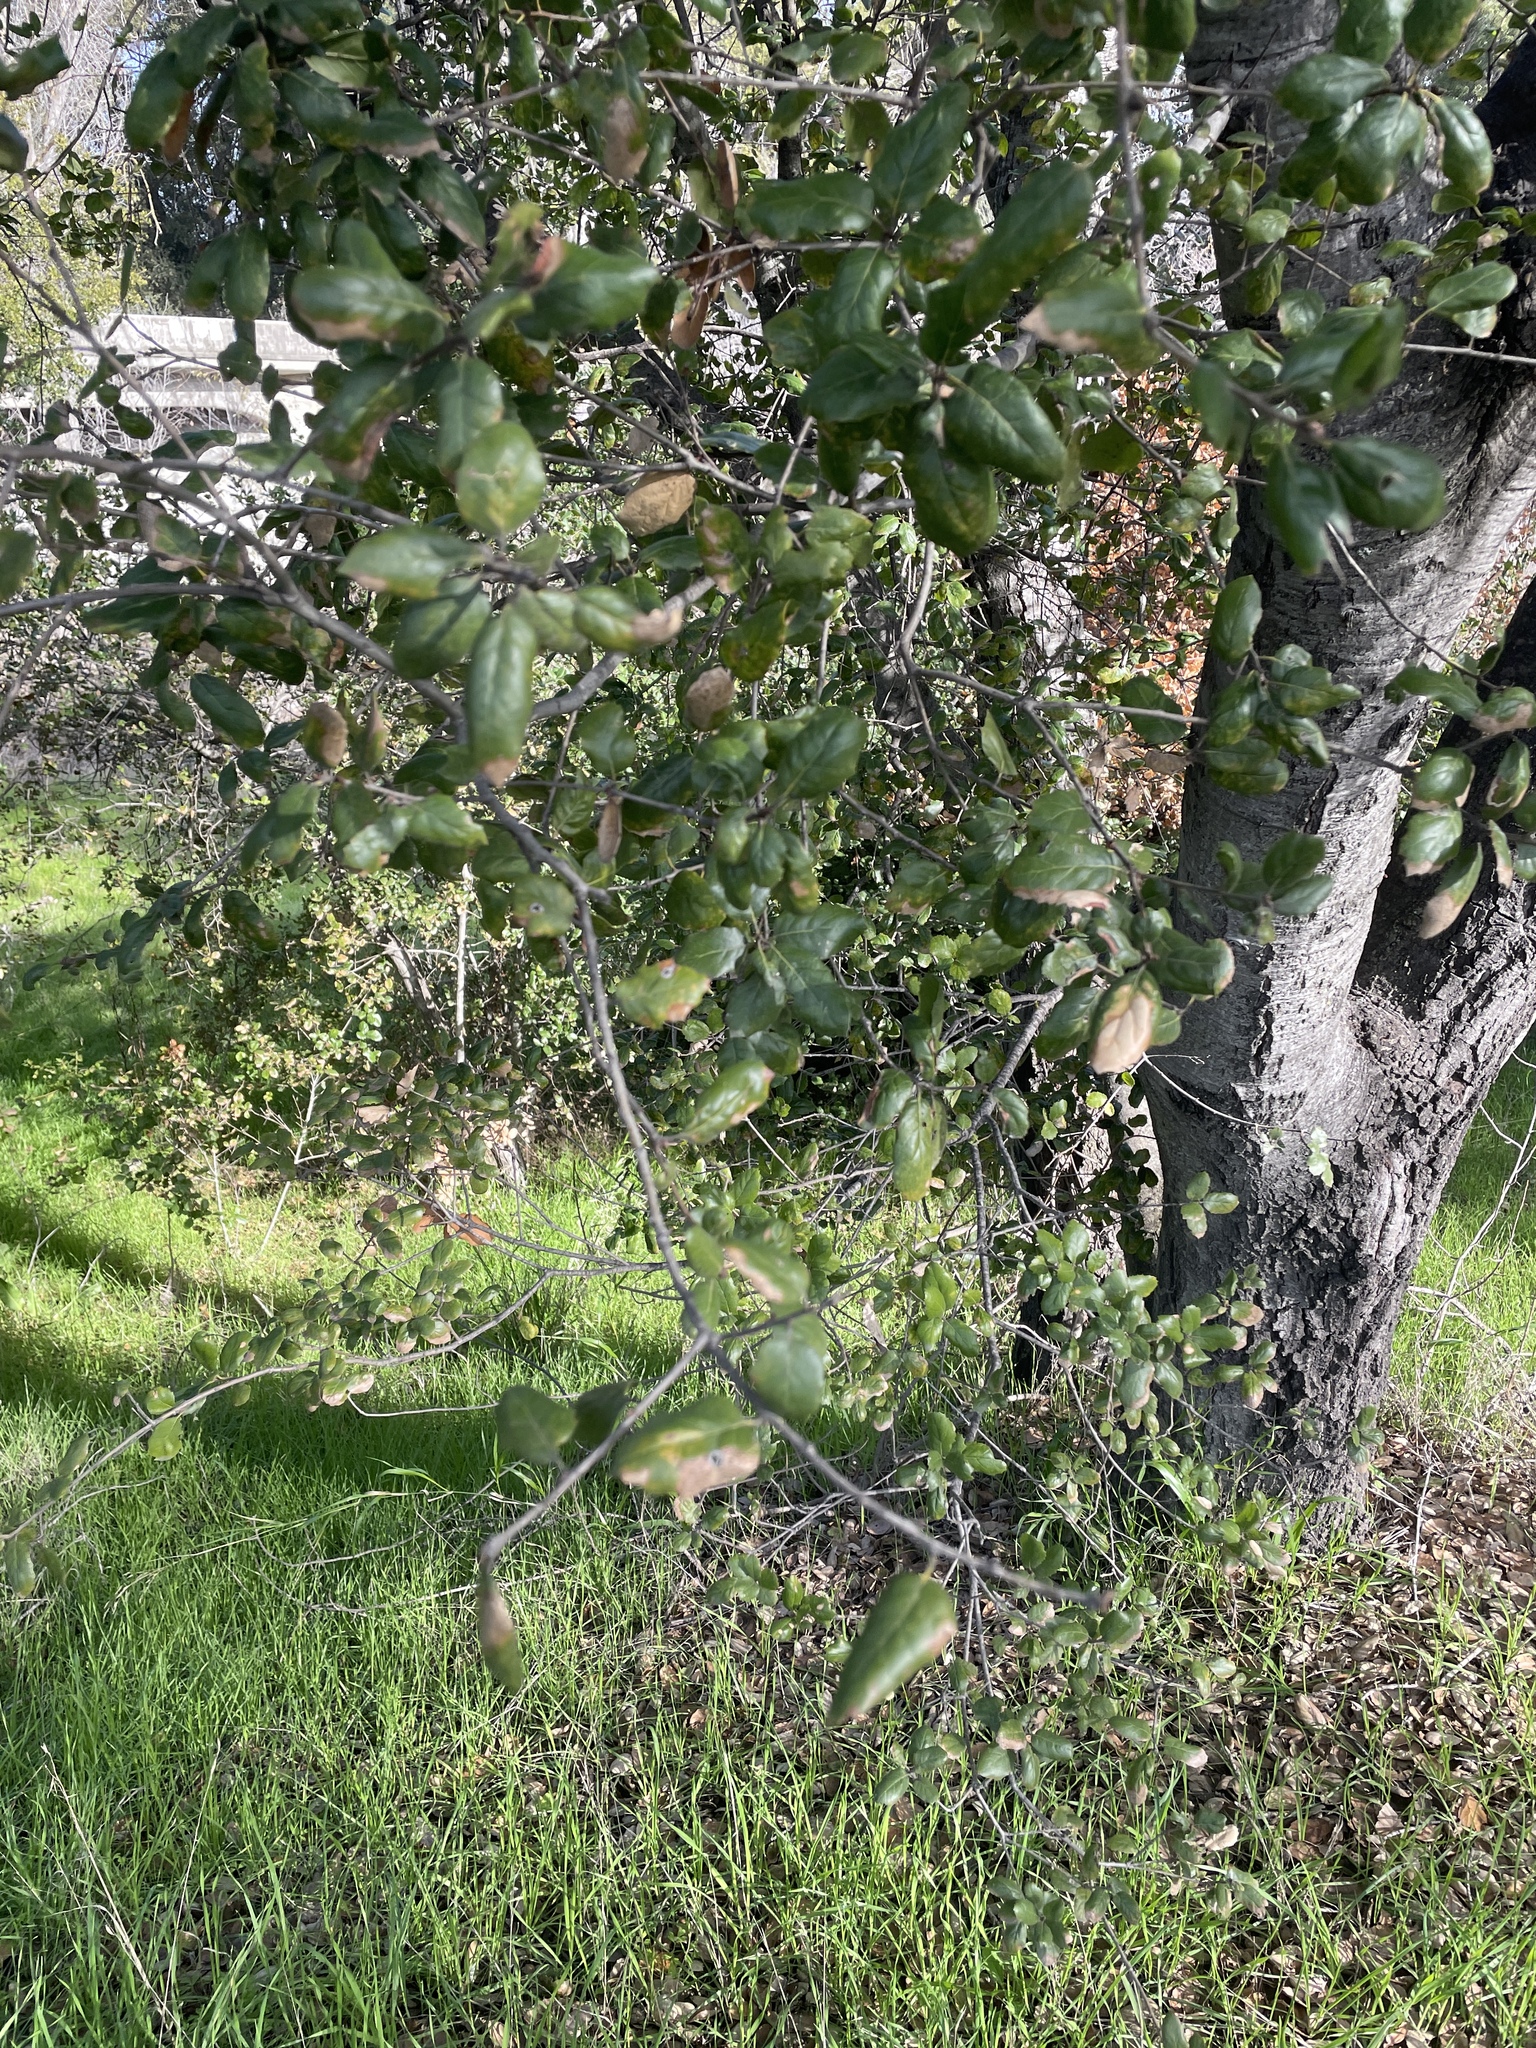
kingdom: Plantae
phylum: Tracheophyta
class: Magnoliopsida
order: Fagales
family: Fagaceae
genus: Quercus
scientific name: Quercus agrifolia
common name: California live oak
